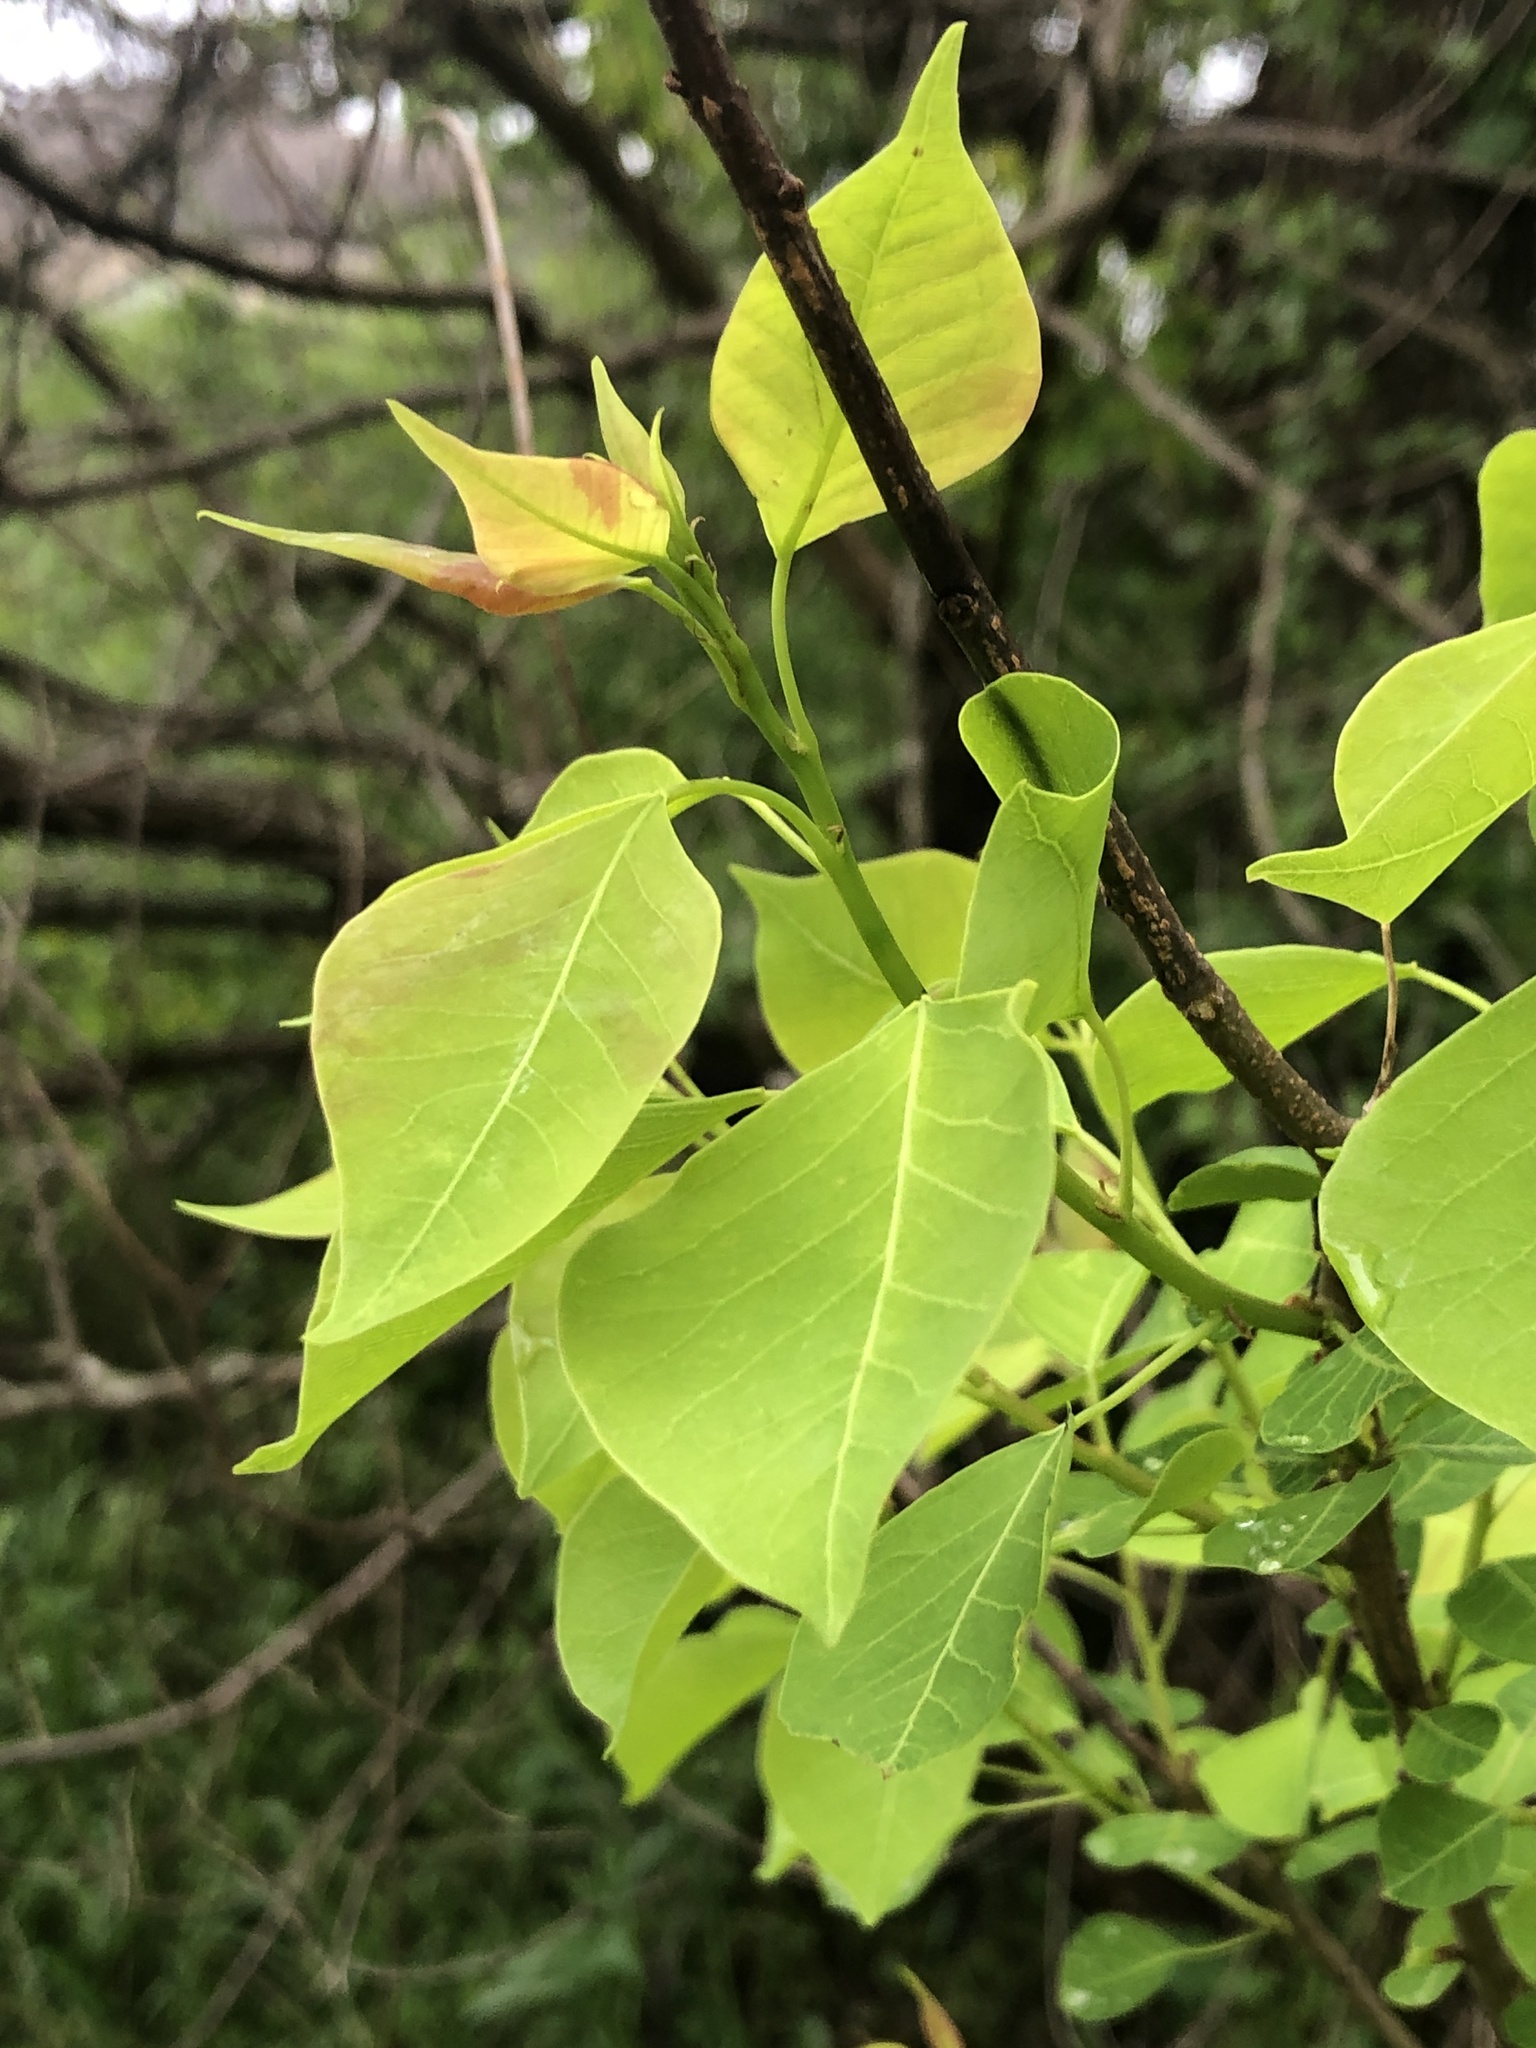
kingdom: Plantae
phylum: Tracheophyta
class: Magnoliopsida
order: Malpighiales
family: Euphorbiaceae
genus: Triadica
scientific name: Triadica sebifera
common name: Chinese tallow
